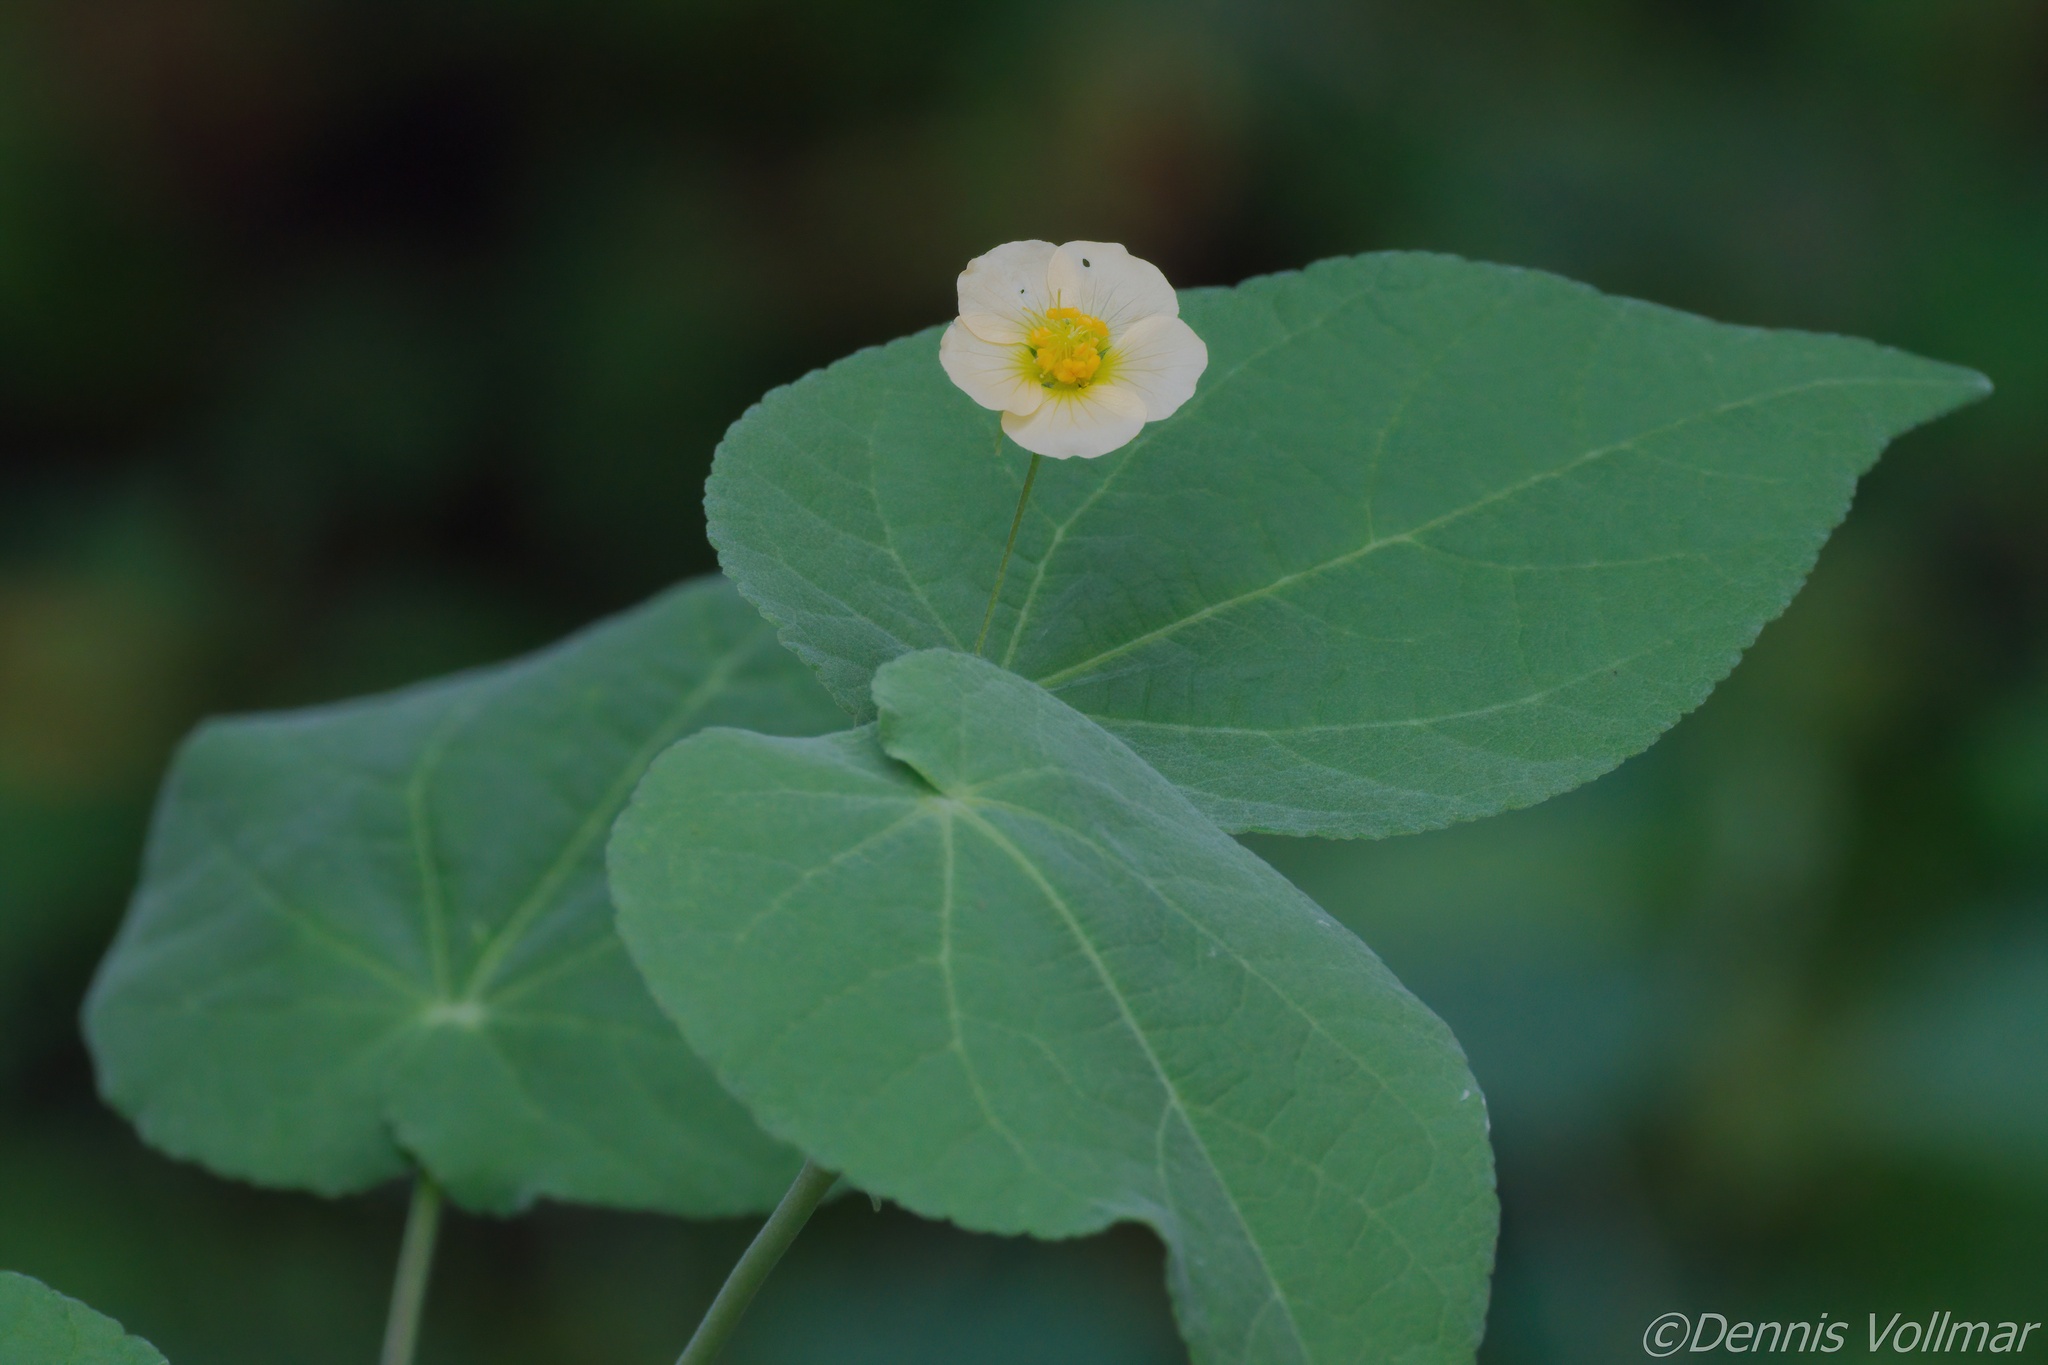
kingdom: Plantae
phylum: Tracheophyta
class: Magnoliopsida
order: Malvales
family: Malvaceae
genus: Herissantia
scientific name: Herissantia crispa
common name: Bladdermallow
